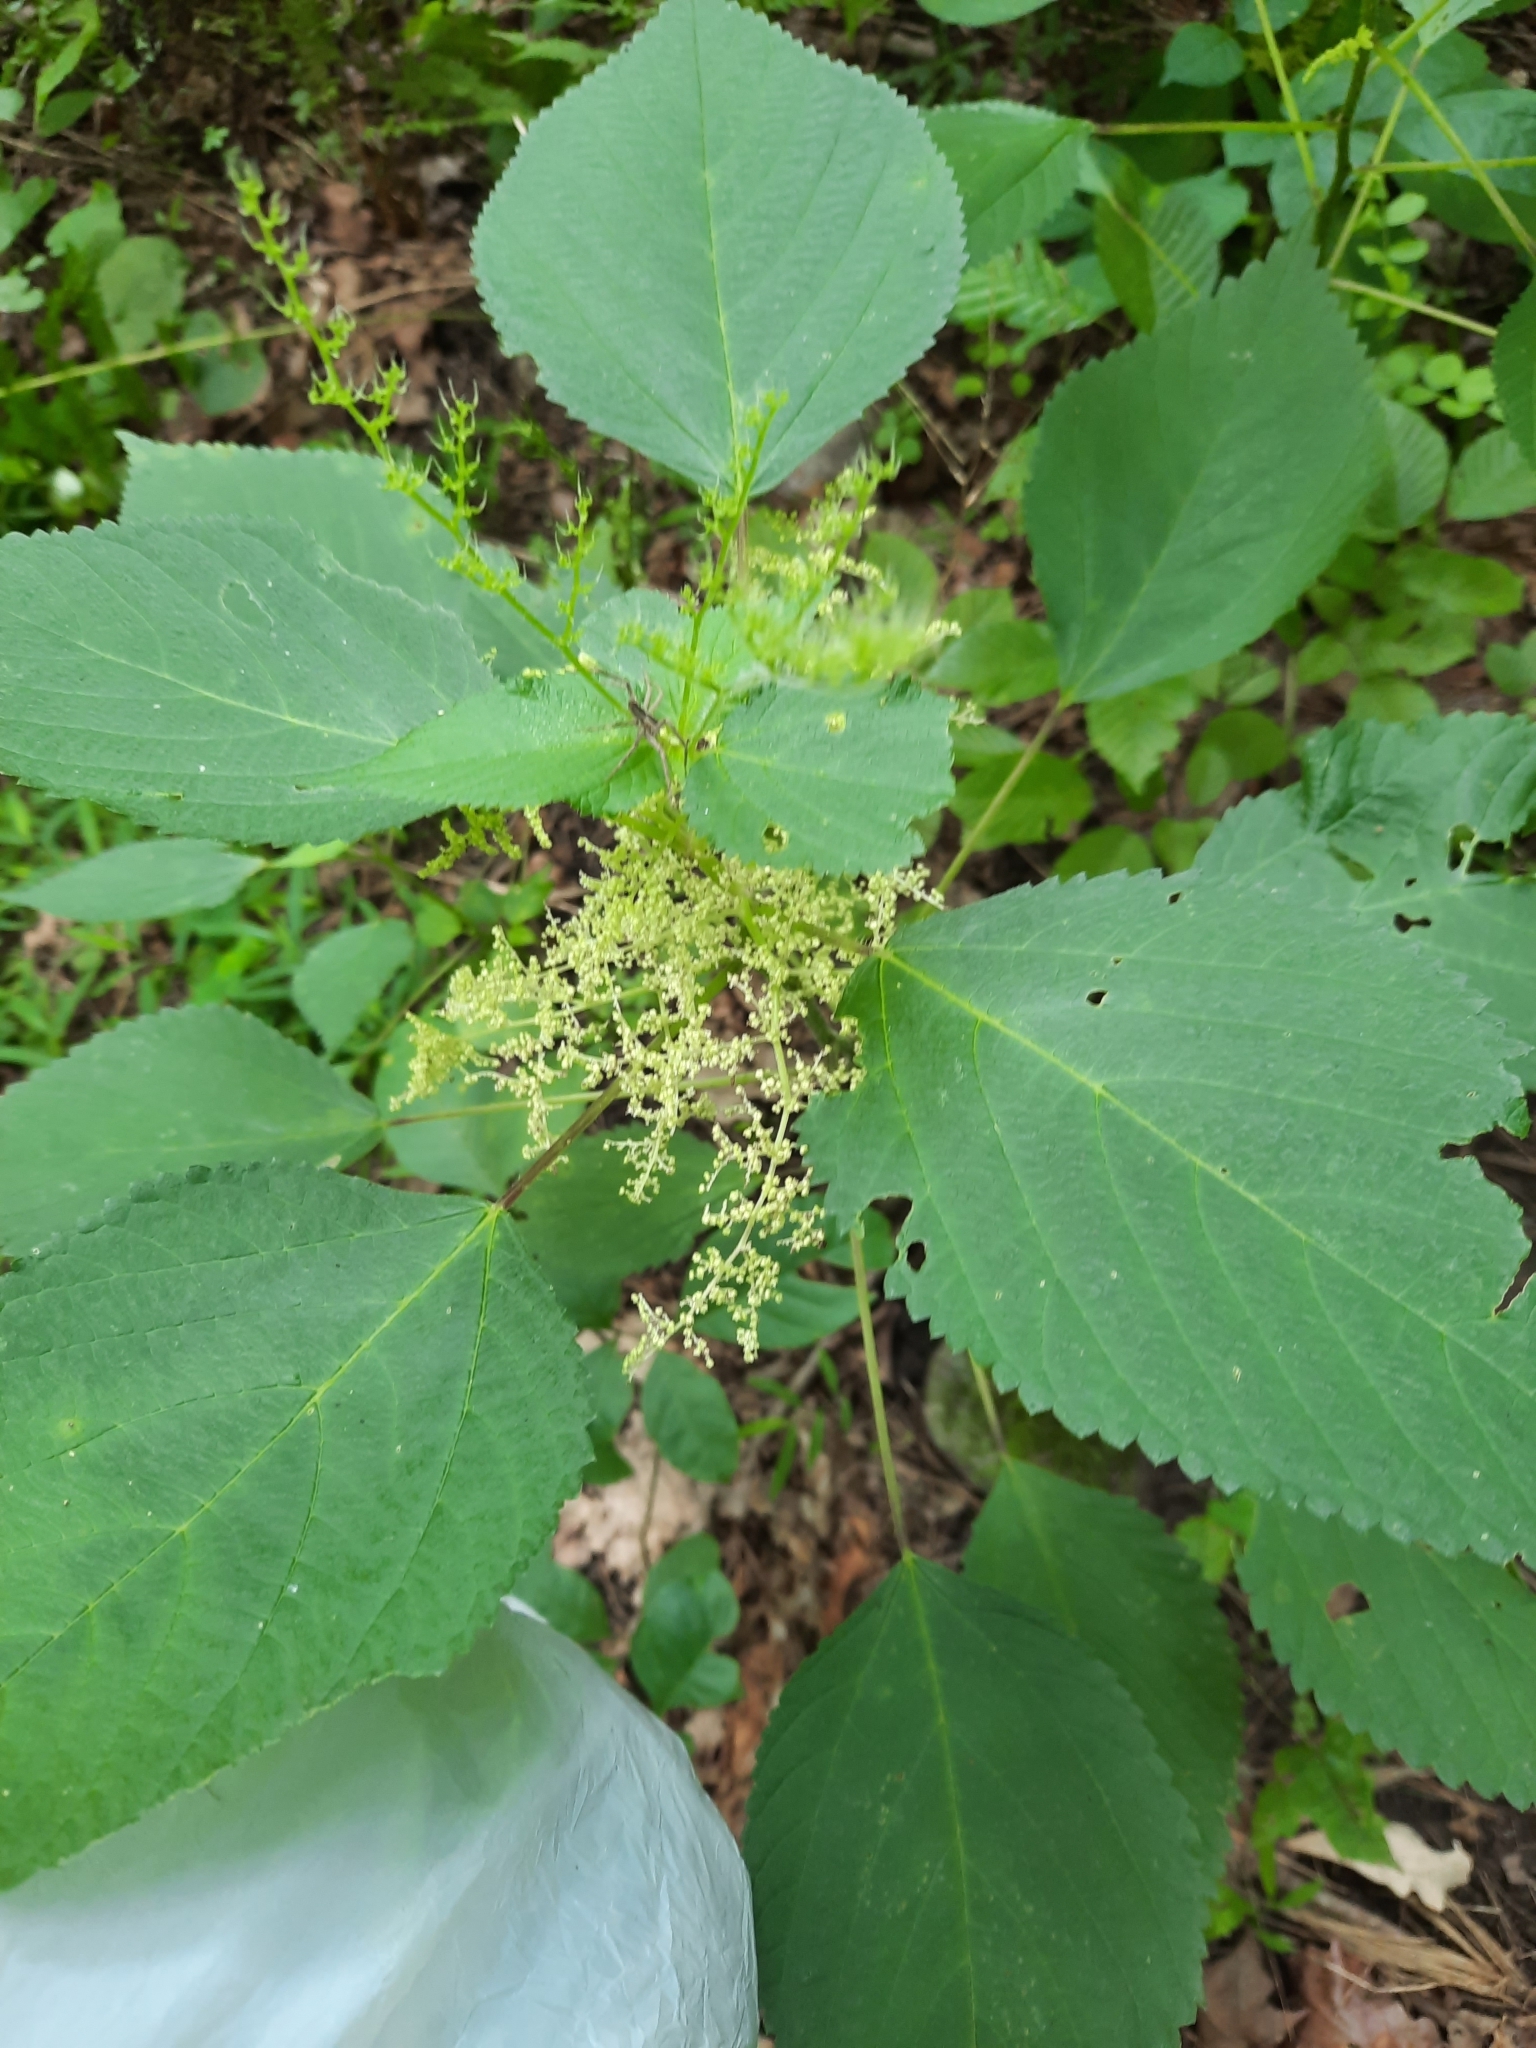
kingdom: Plantae
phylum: Tracheophyta
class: Magnoliopsida
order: Rosales
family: Urticaceae
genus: Laportea
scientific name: Laportea canadensis
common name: Canada nettle
